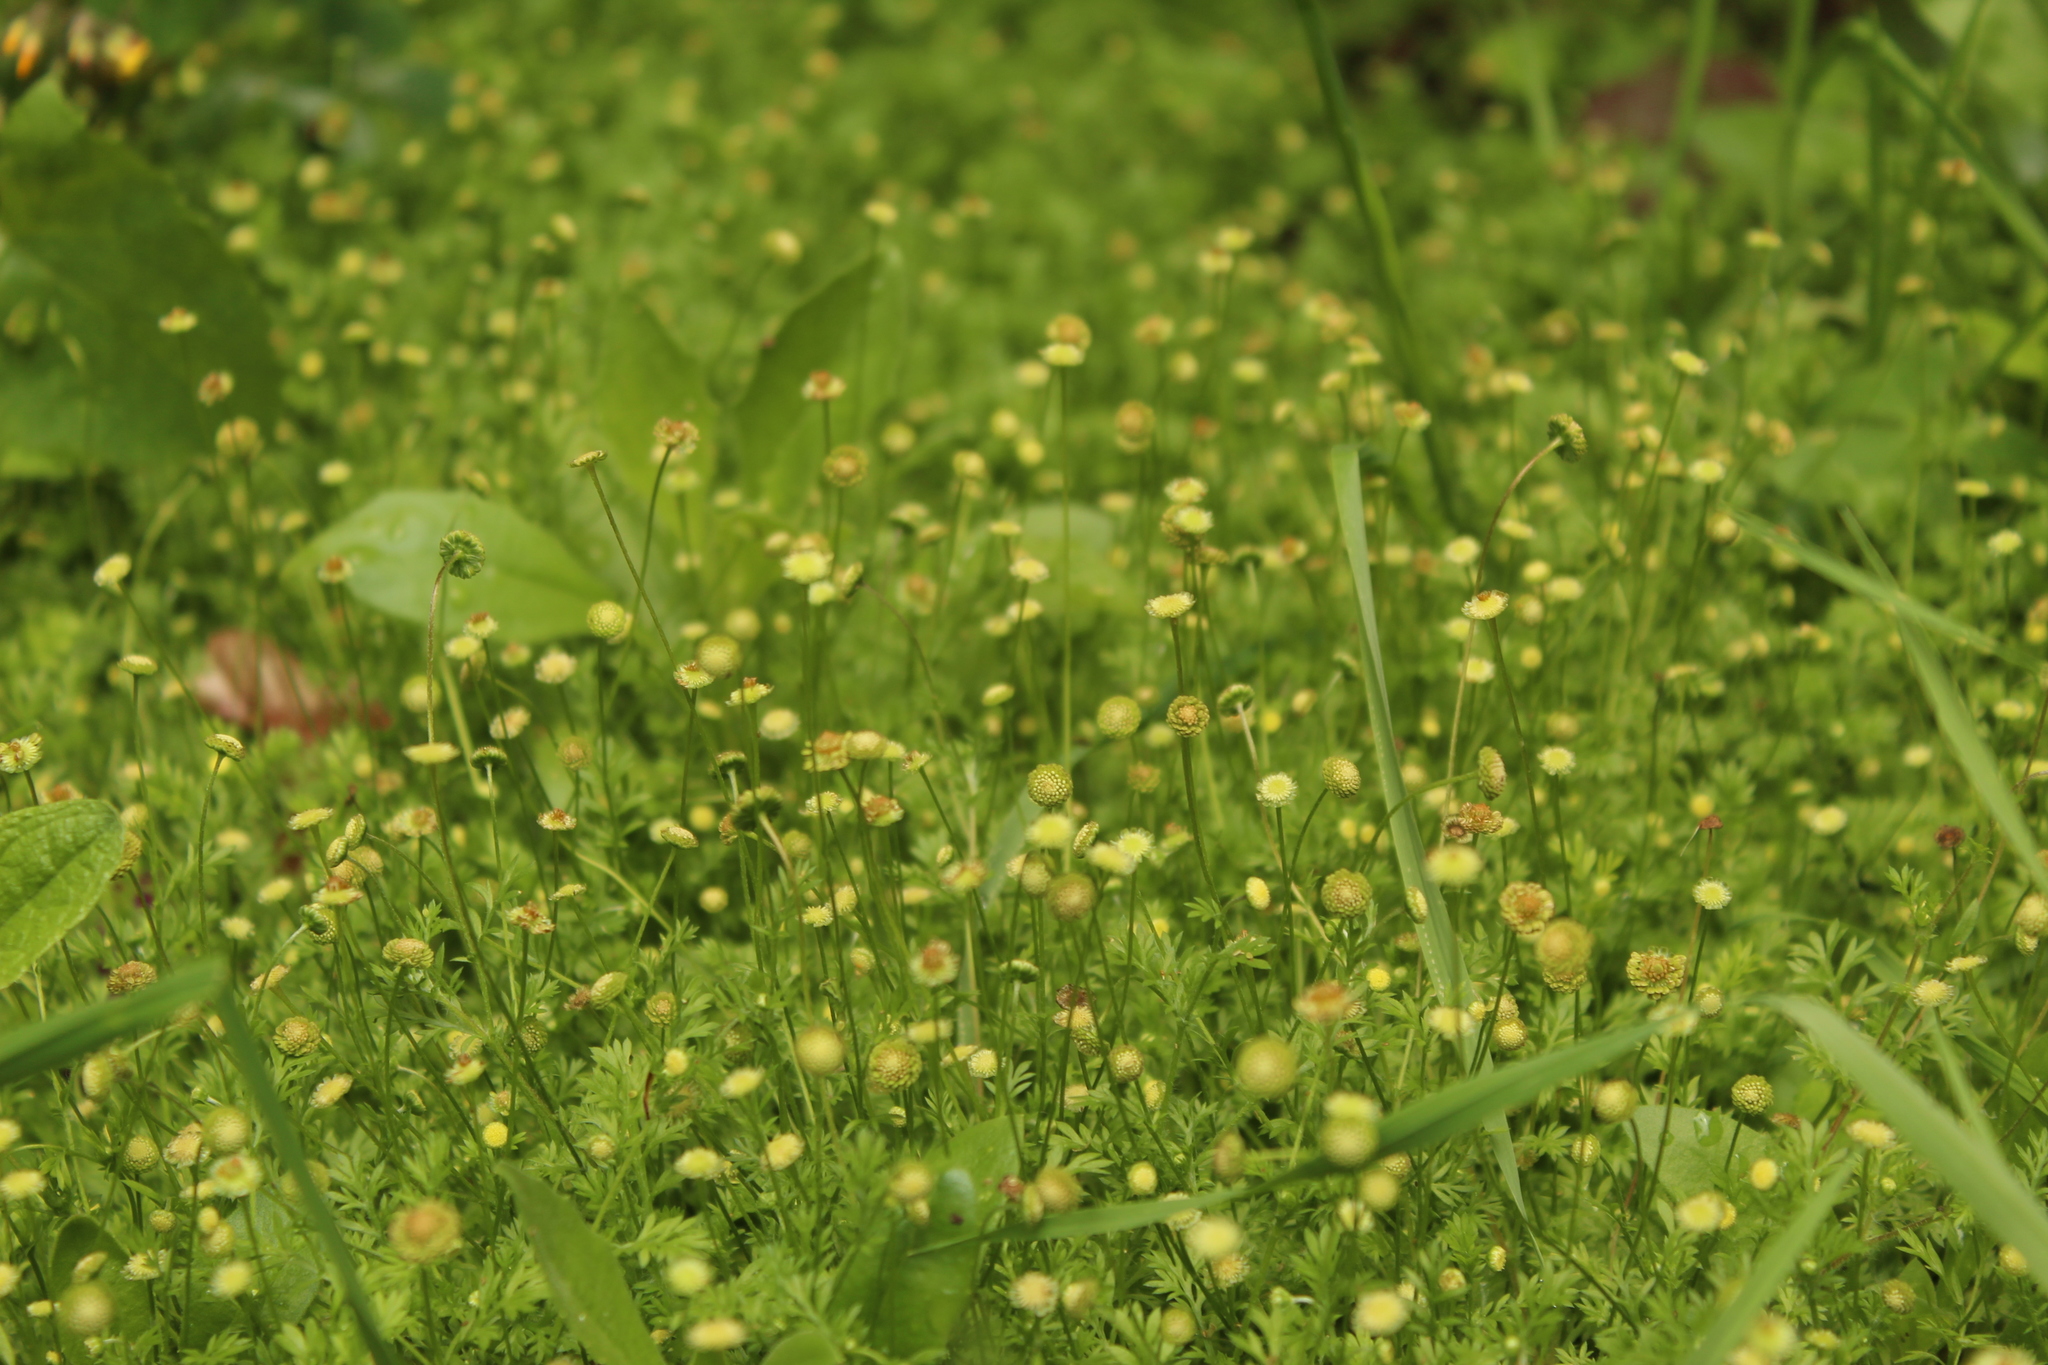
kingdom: Plantae
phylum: Tracheophyta
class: Magnoliopsida
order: Asterales
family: Asteraceae
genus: Cotula
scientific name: Cotula australis
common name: Australian waterbuttons
